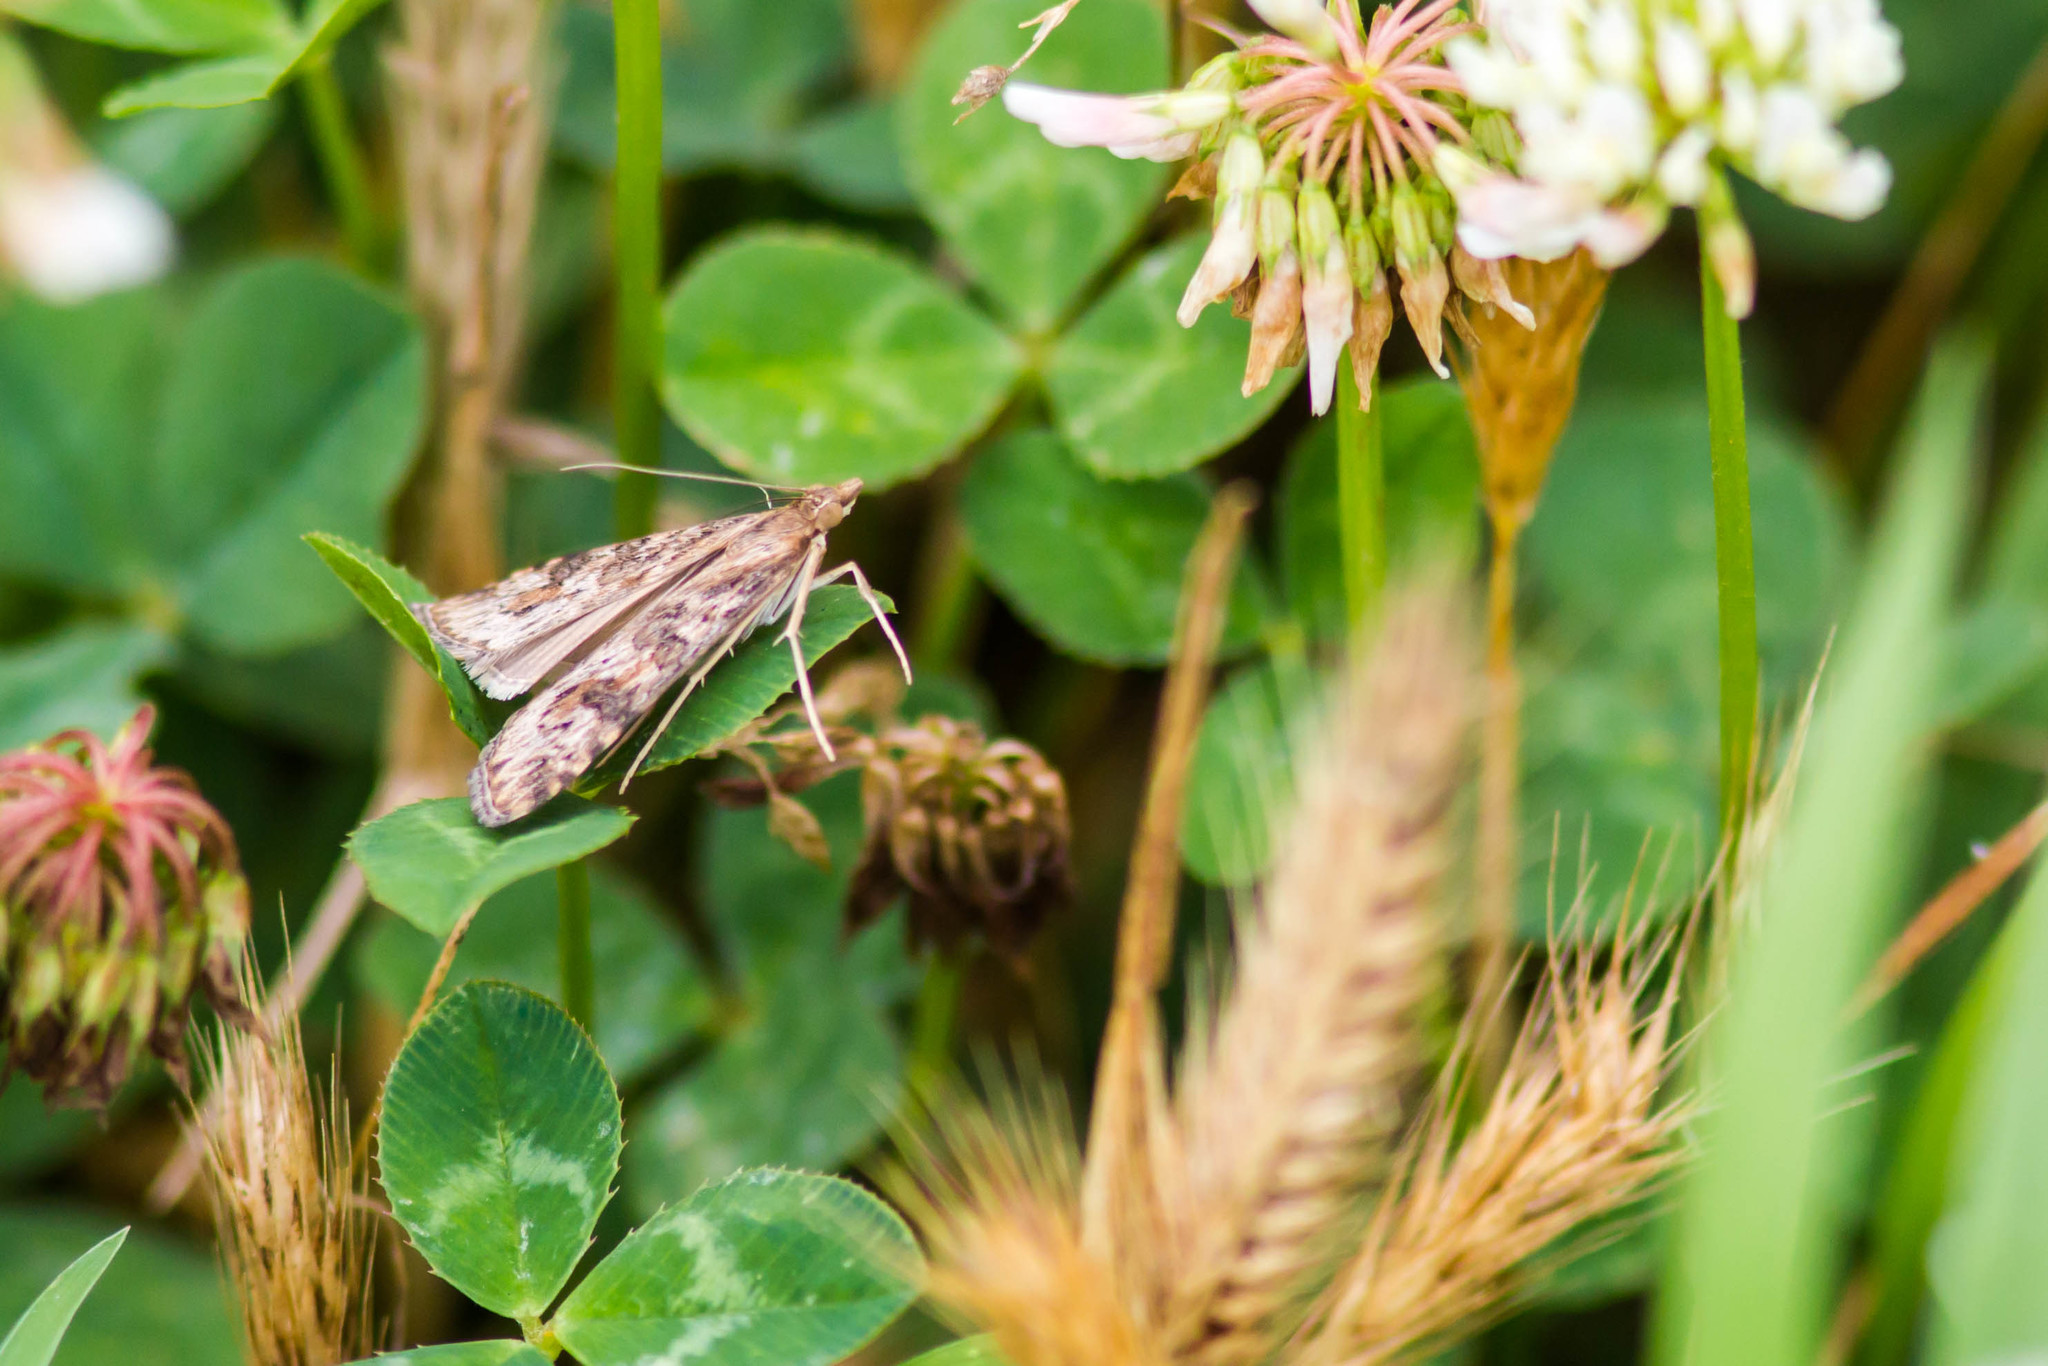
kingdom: Animalia
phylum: Arthropoda
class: Insecta
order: Lepidoptera
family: Crambidae
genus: Nomophila
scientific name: Nomophila nearctica
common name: American rush veneer
